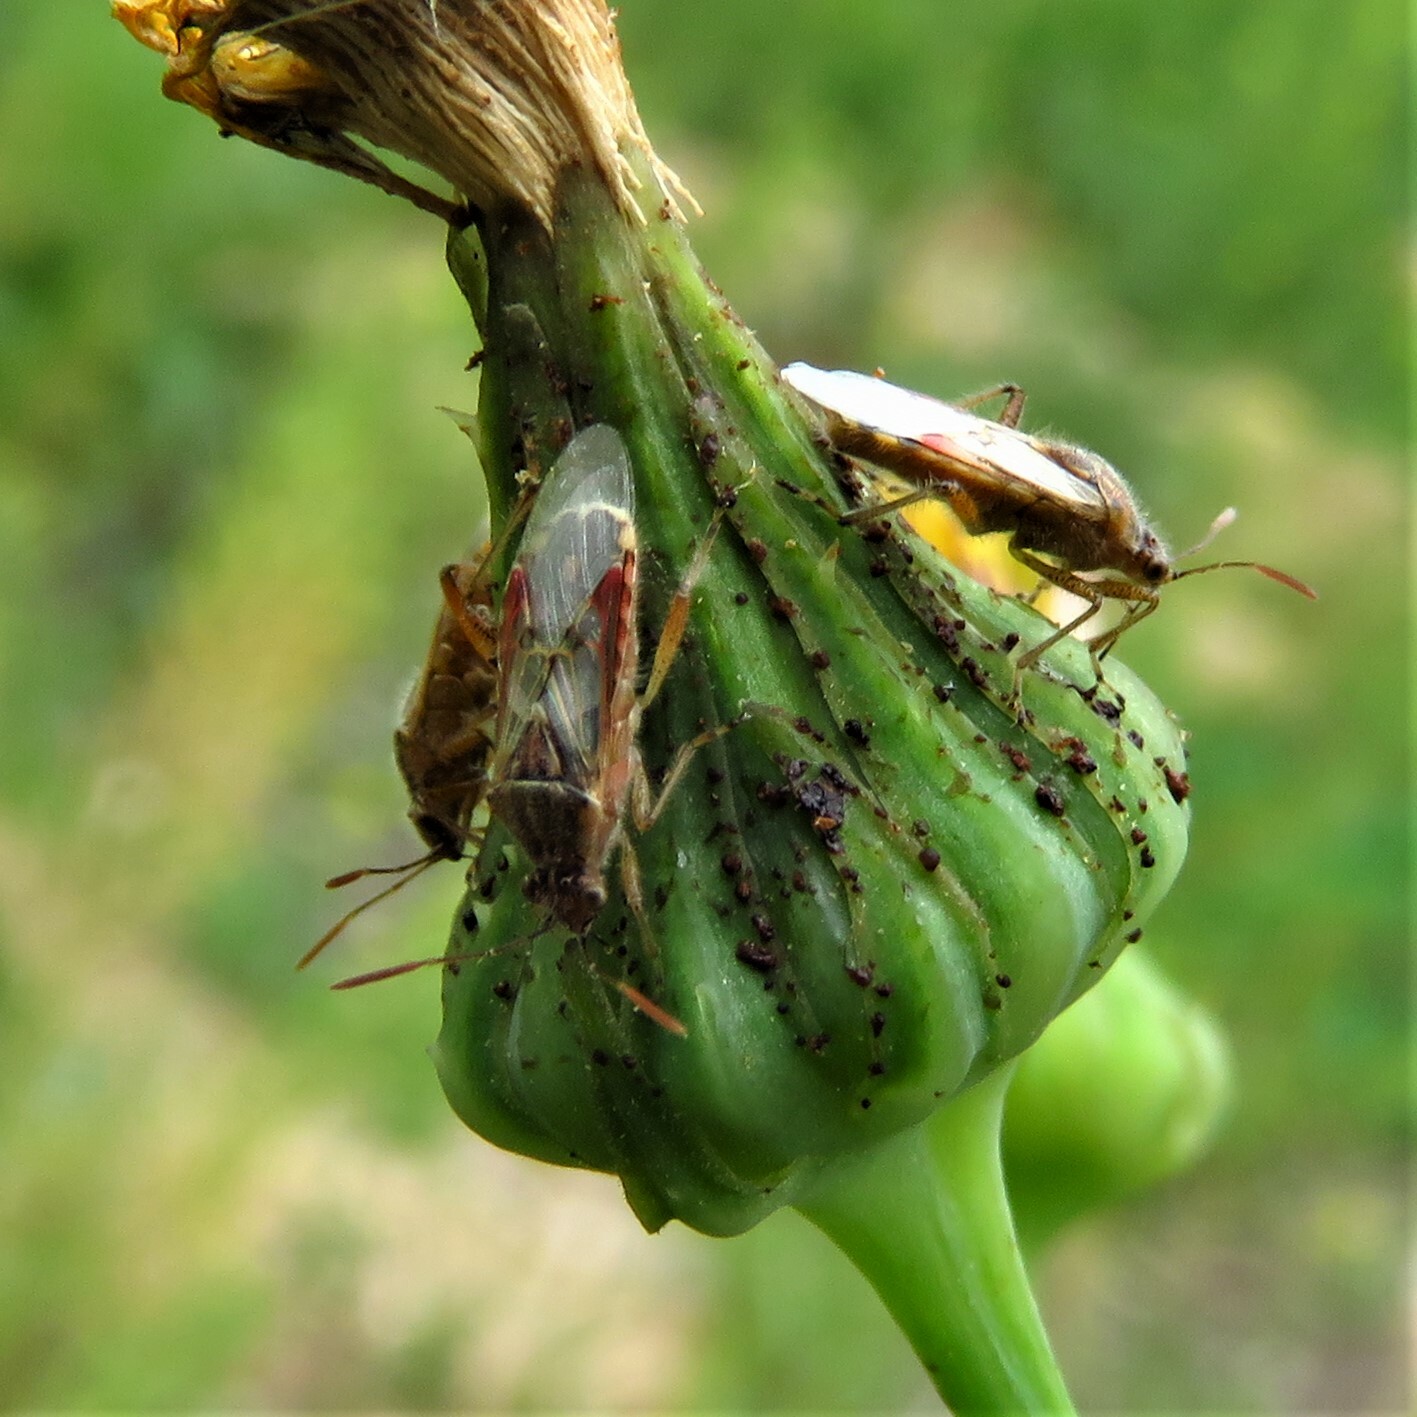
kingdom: Animalia
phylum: Arthropoda
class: Insecta
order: Hemiptera
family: Rhopalidae
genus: Liorhyssus
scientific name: Liorhyssus hyalinus
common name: Scentless plant bug
